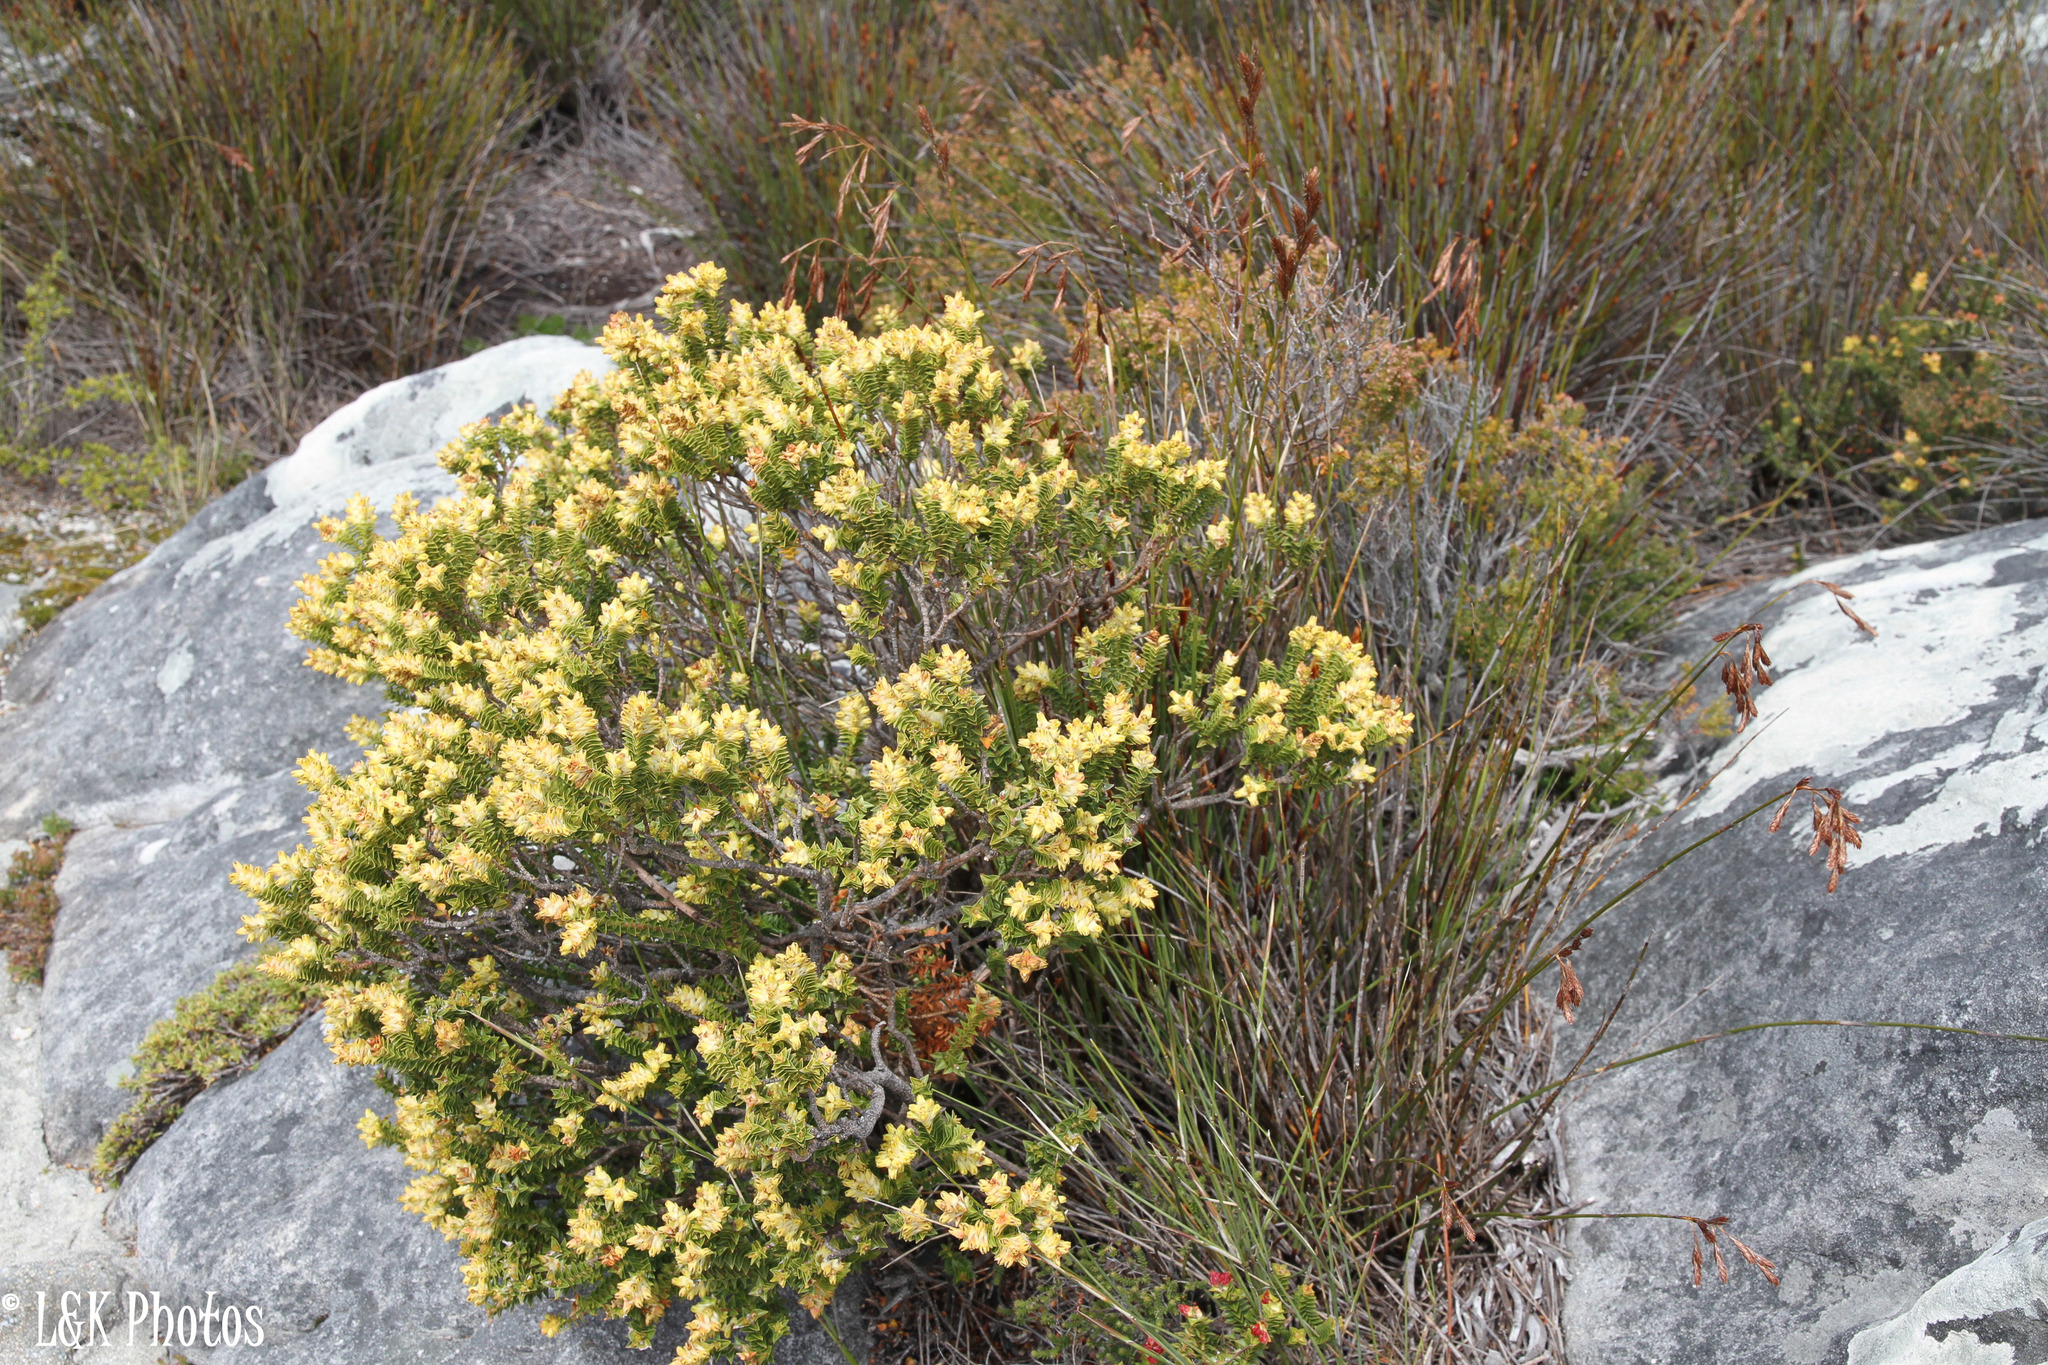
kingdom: Plantae
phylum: Tracheophyta
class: Magnoliopsida
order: Myrtales
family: Penaeaceae
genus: Penaea
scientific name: Penaea mucronata
